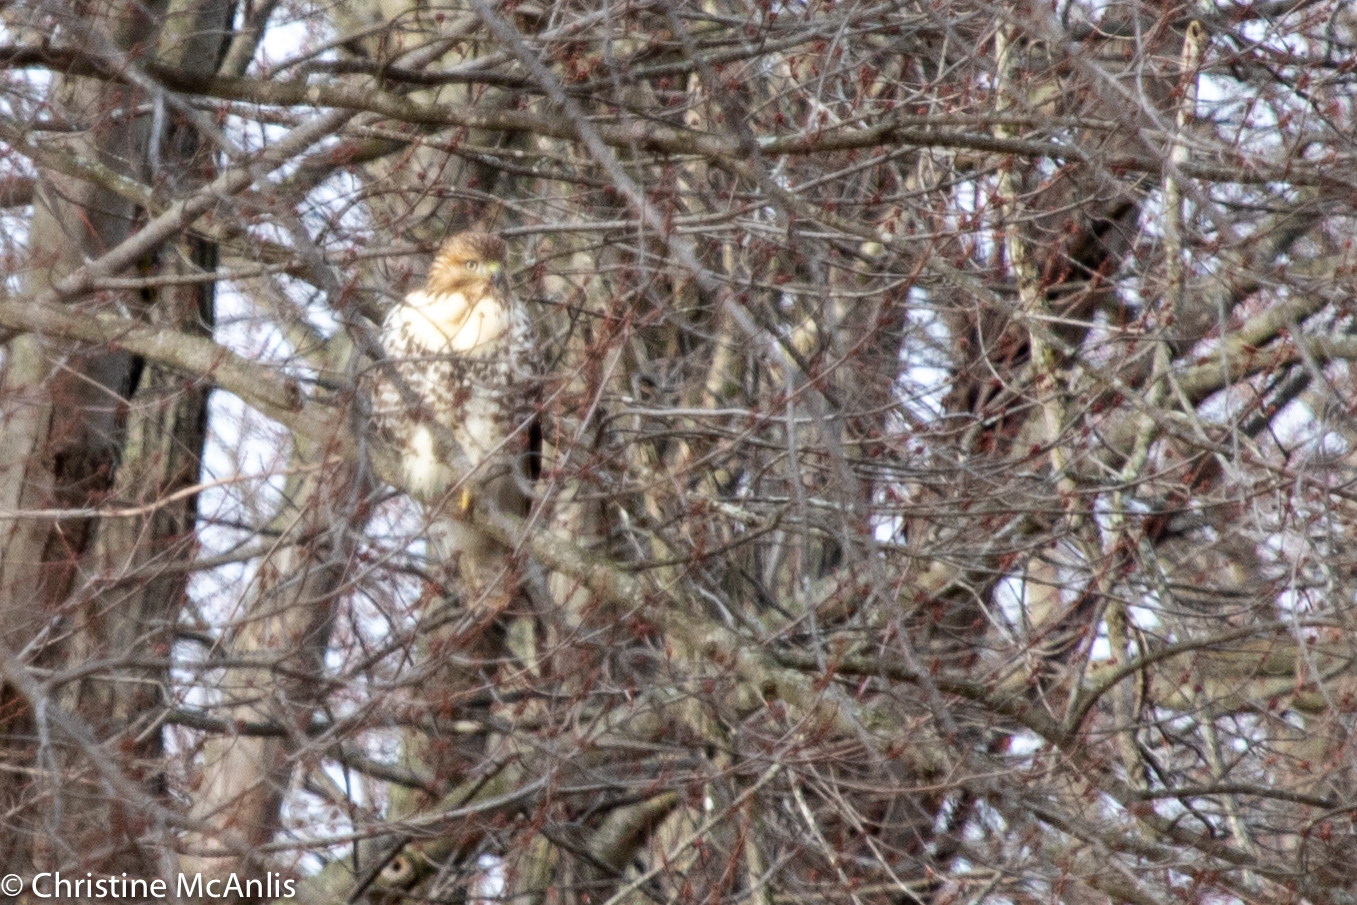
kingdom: Animalia
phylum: Chordata
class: Aves
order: Accipitriformes
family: Accipitridae
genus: Buteo
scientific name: Buteo jamaicensis
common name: Red-tailed hawk
